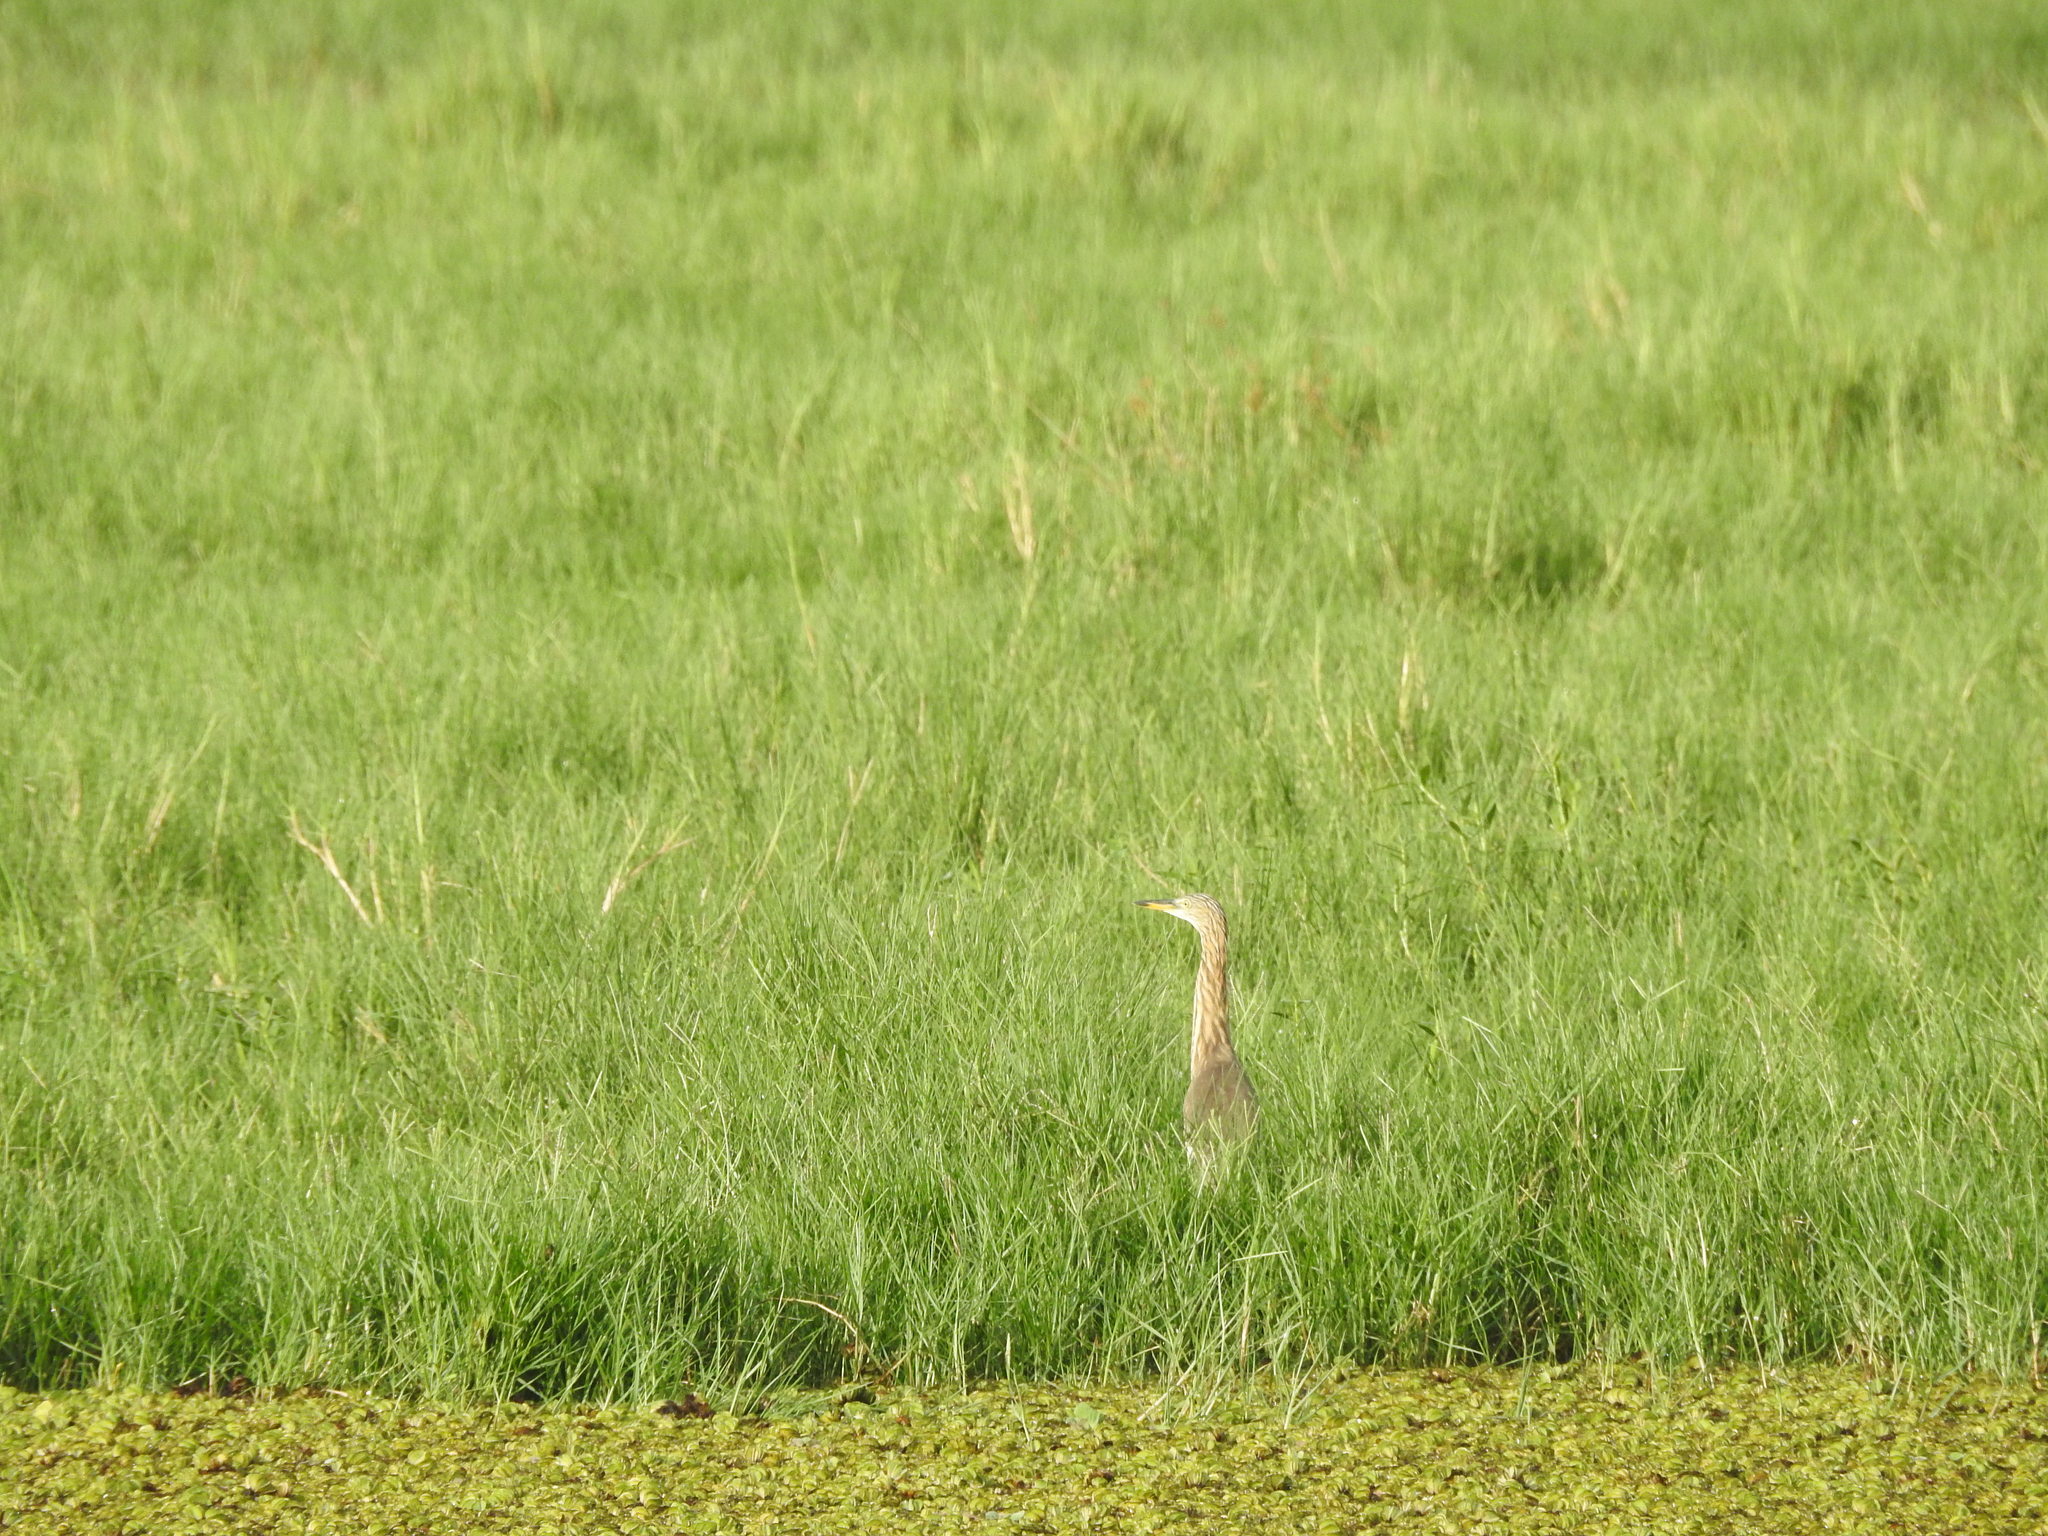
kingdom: Animalia
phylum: Chordata
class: Aves
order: Pelecaniformes
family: Ardeidae
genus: Ardeola
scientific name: Ardeola grayii
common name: Indian pond heron
